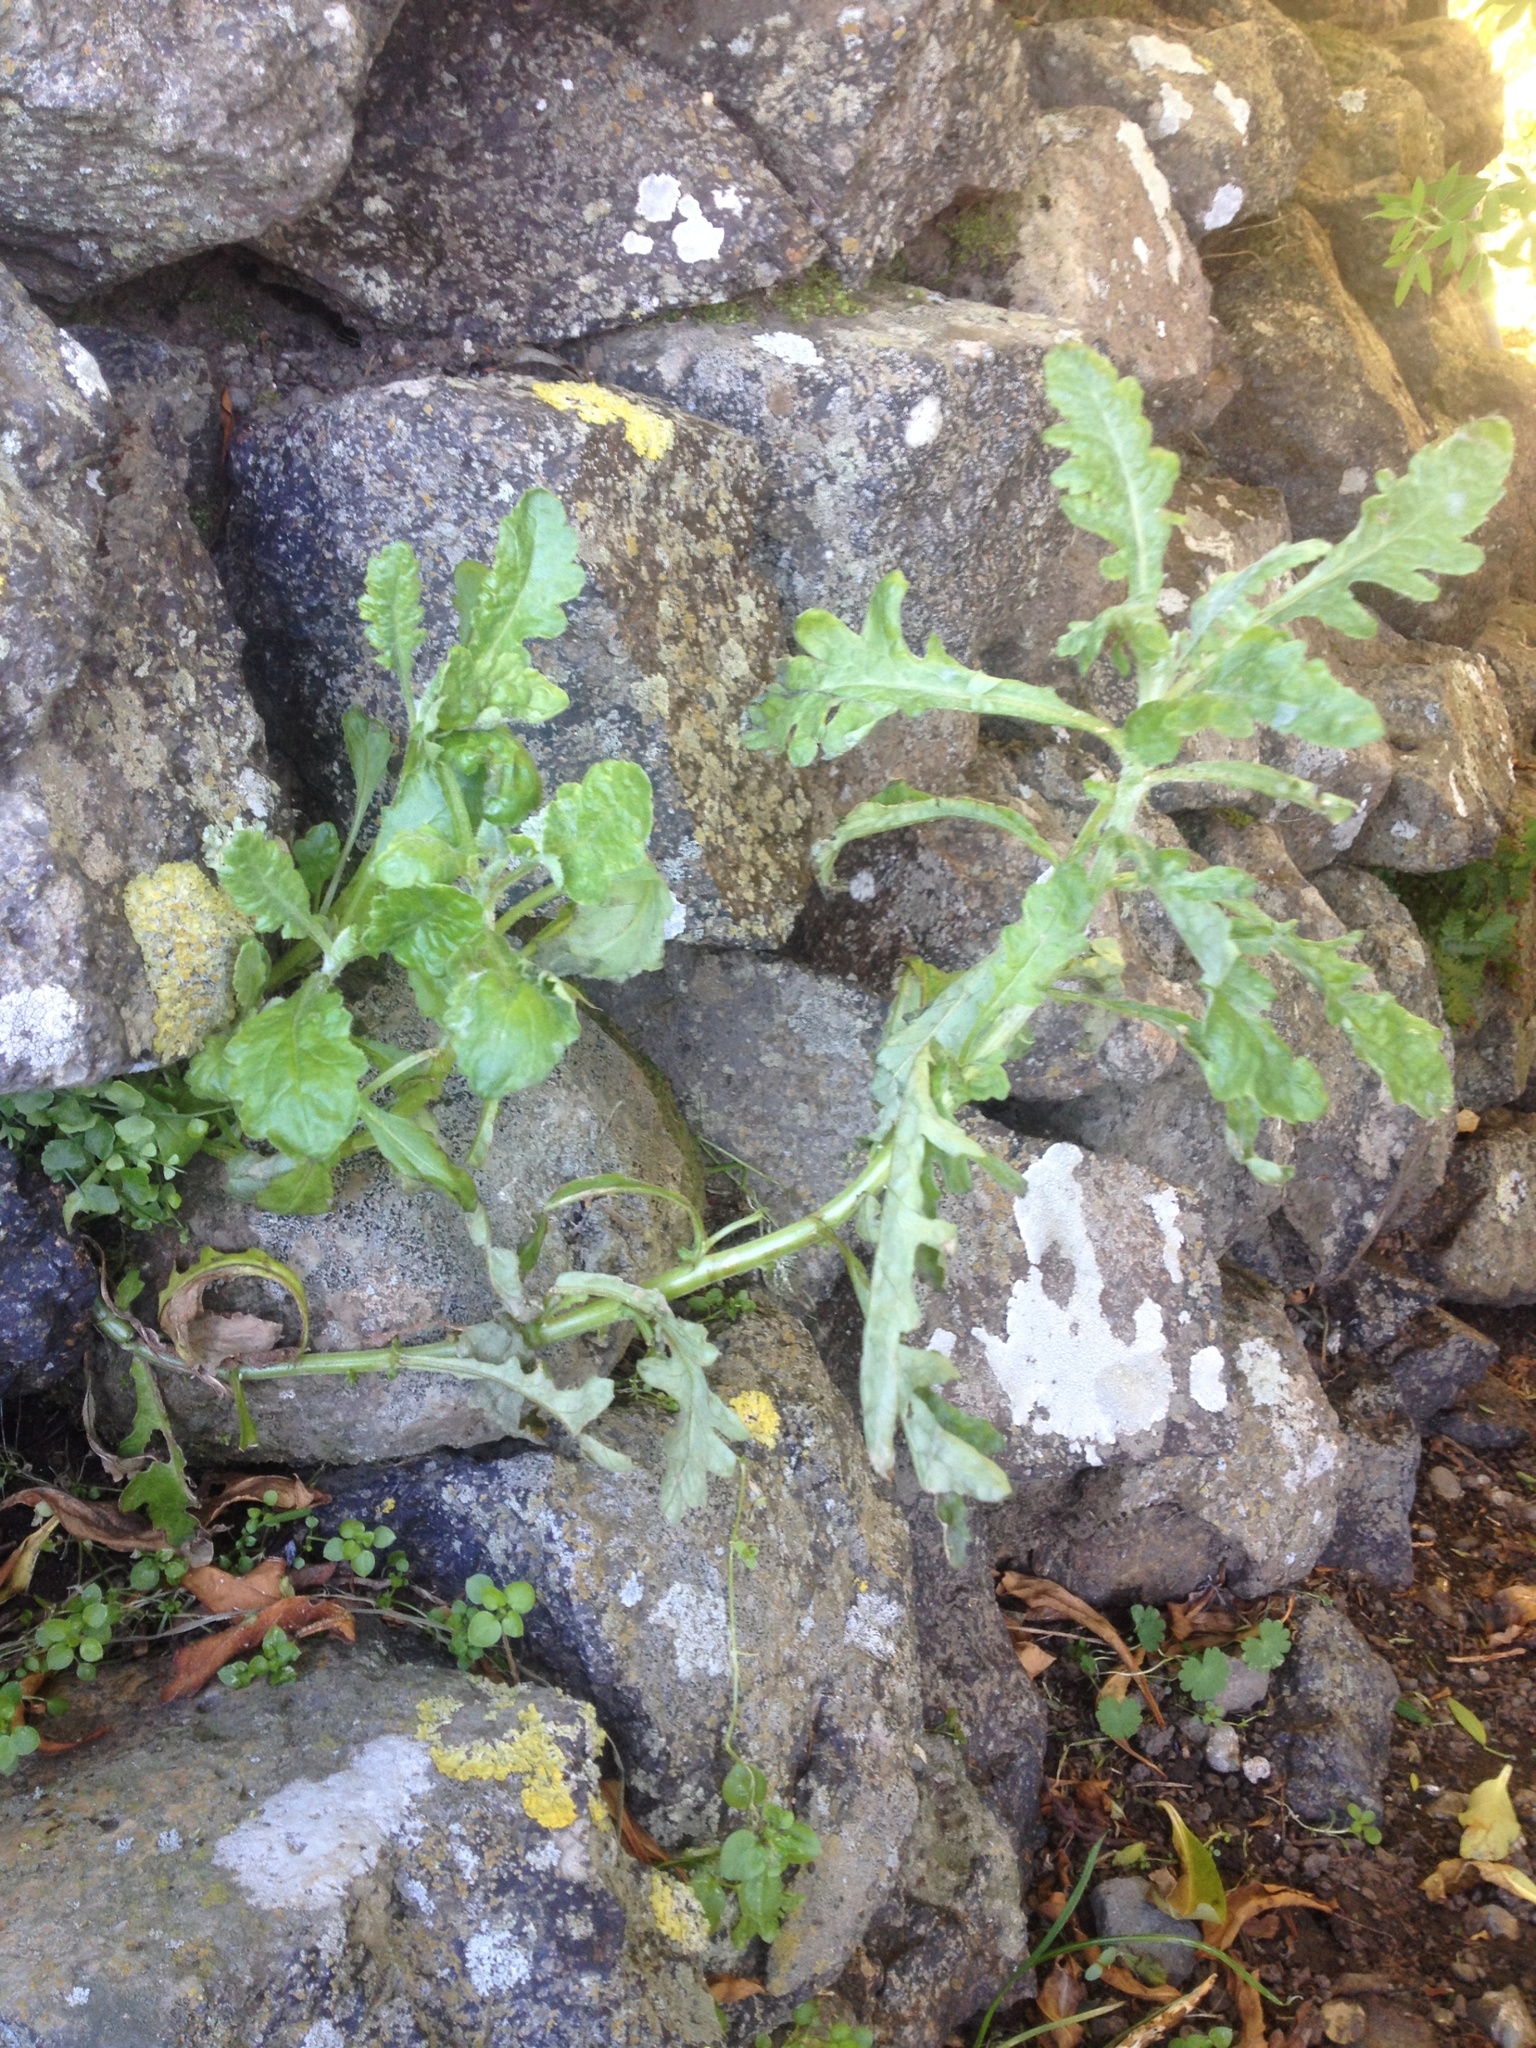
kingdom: Plantae
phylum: Tracheophyta
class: Magnoliopsida
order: Asterales
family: Asteraceae
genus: Senecio
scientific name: Senecio glomeratus
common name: Cutleaf burnweed
